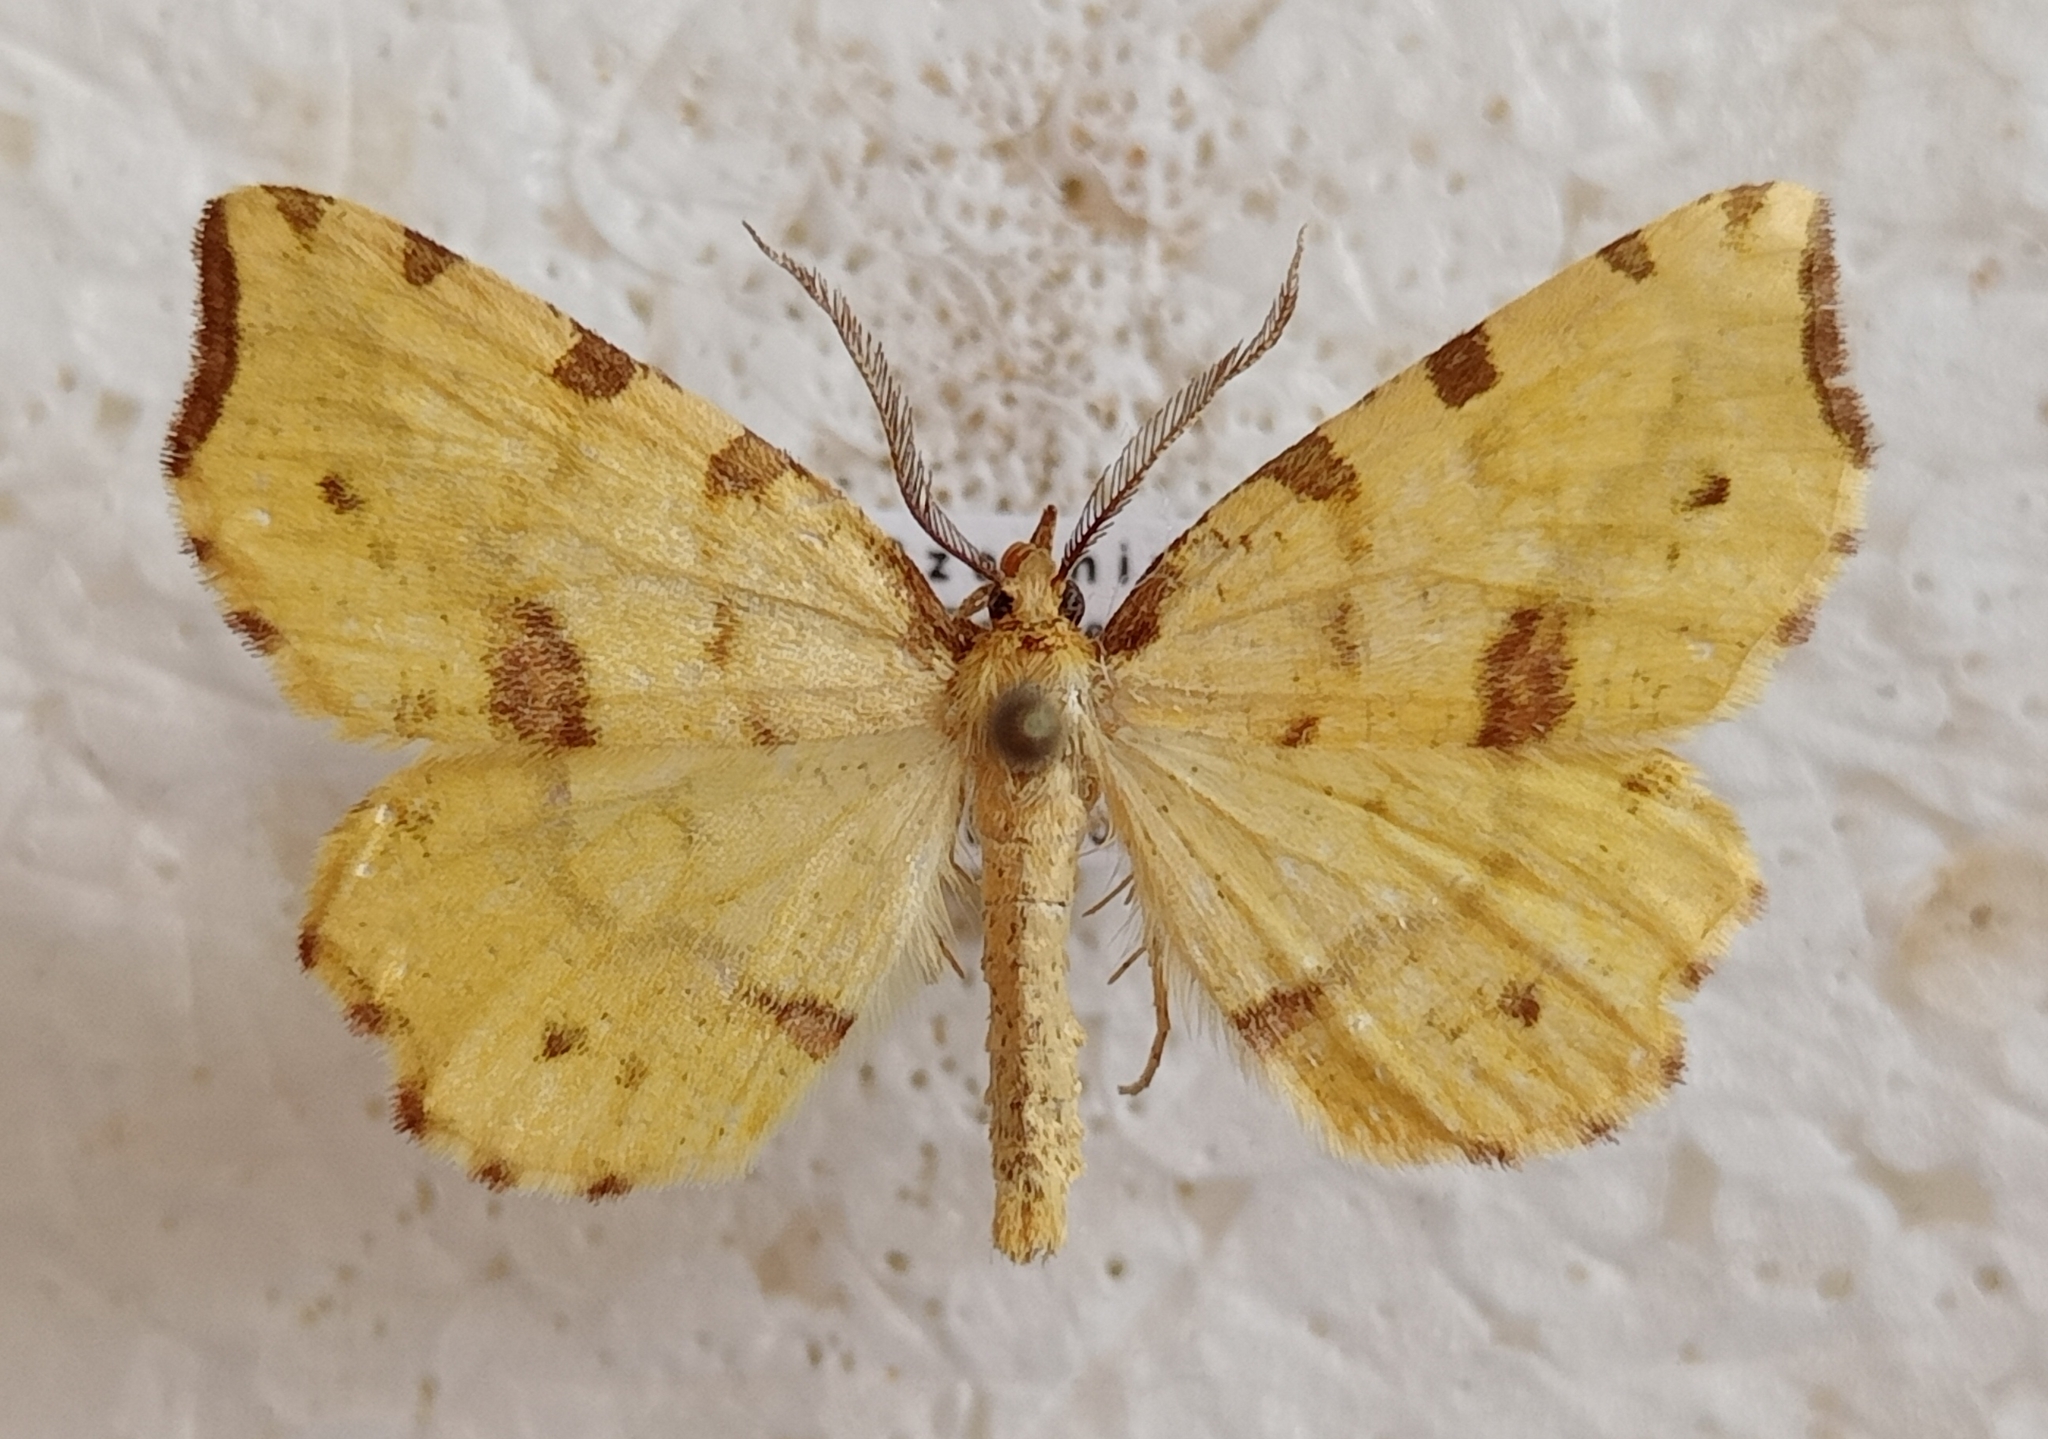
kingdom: Animalia
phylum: Arthropoda
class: Insecta
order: Lepidoptera
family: Geometridae
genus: Therapis
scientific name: Therapis flavicaria
